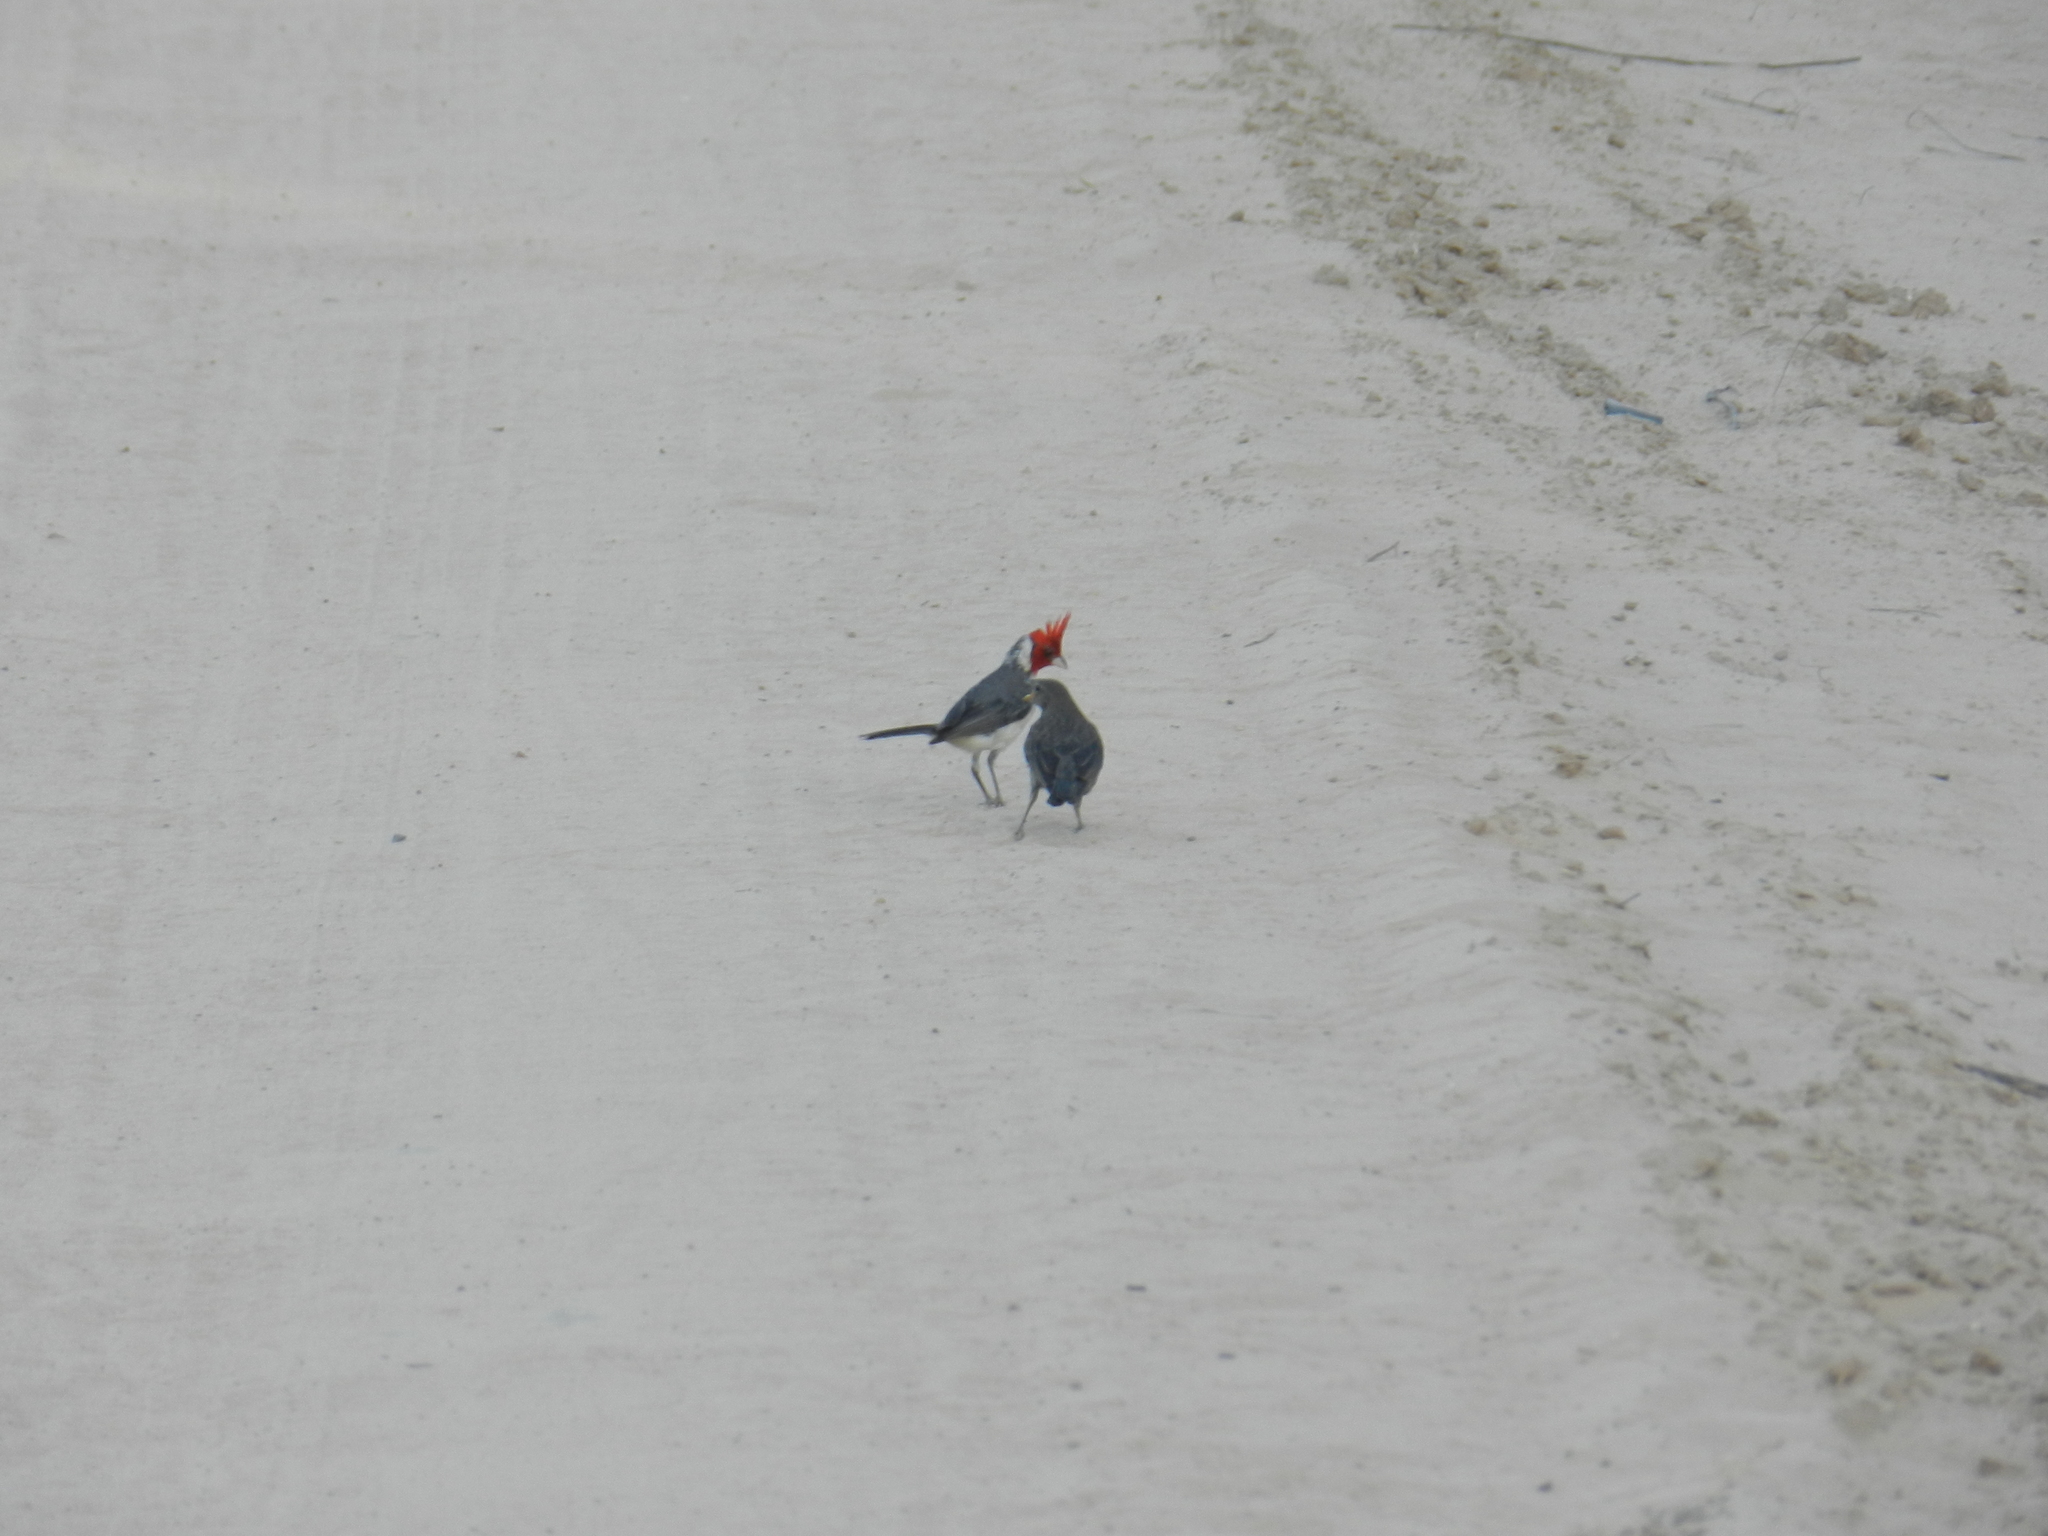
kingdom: Animalia
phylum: Chordata
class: Aves
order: Passeriformes
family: Icteridae
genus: Molothrus
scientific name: Molothrus bonariensis
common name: Shiny cowbird
